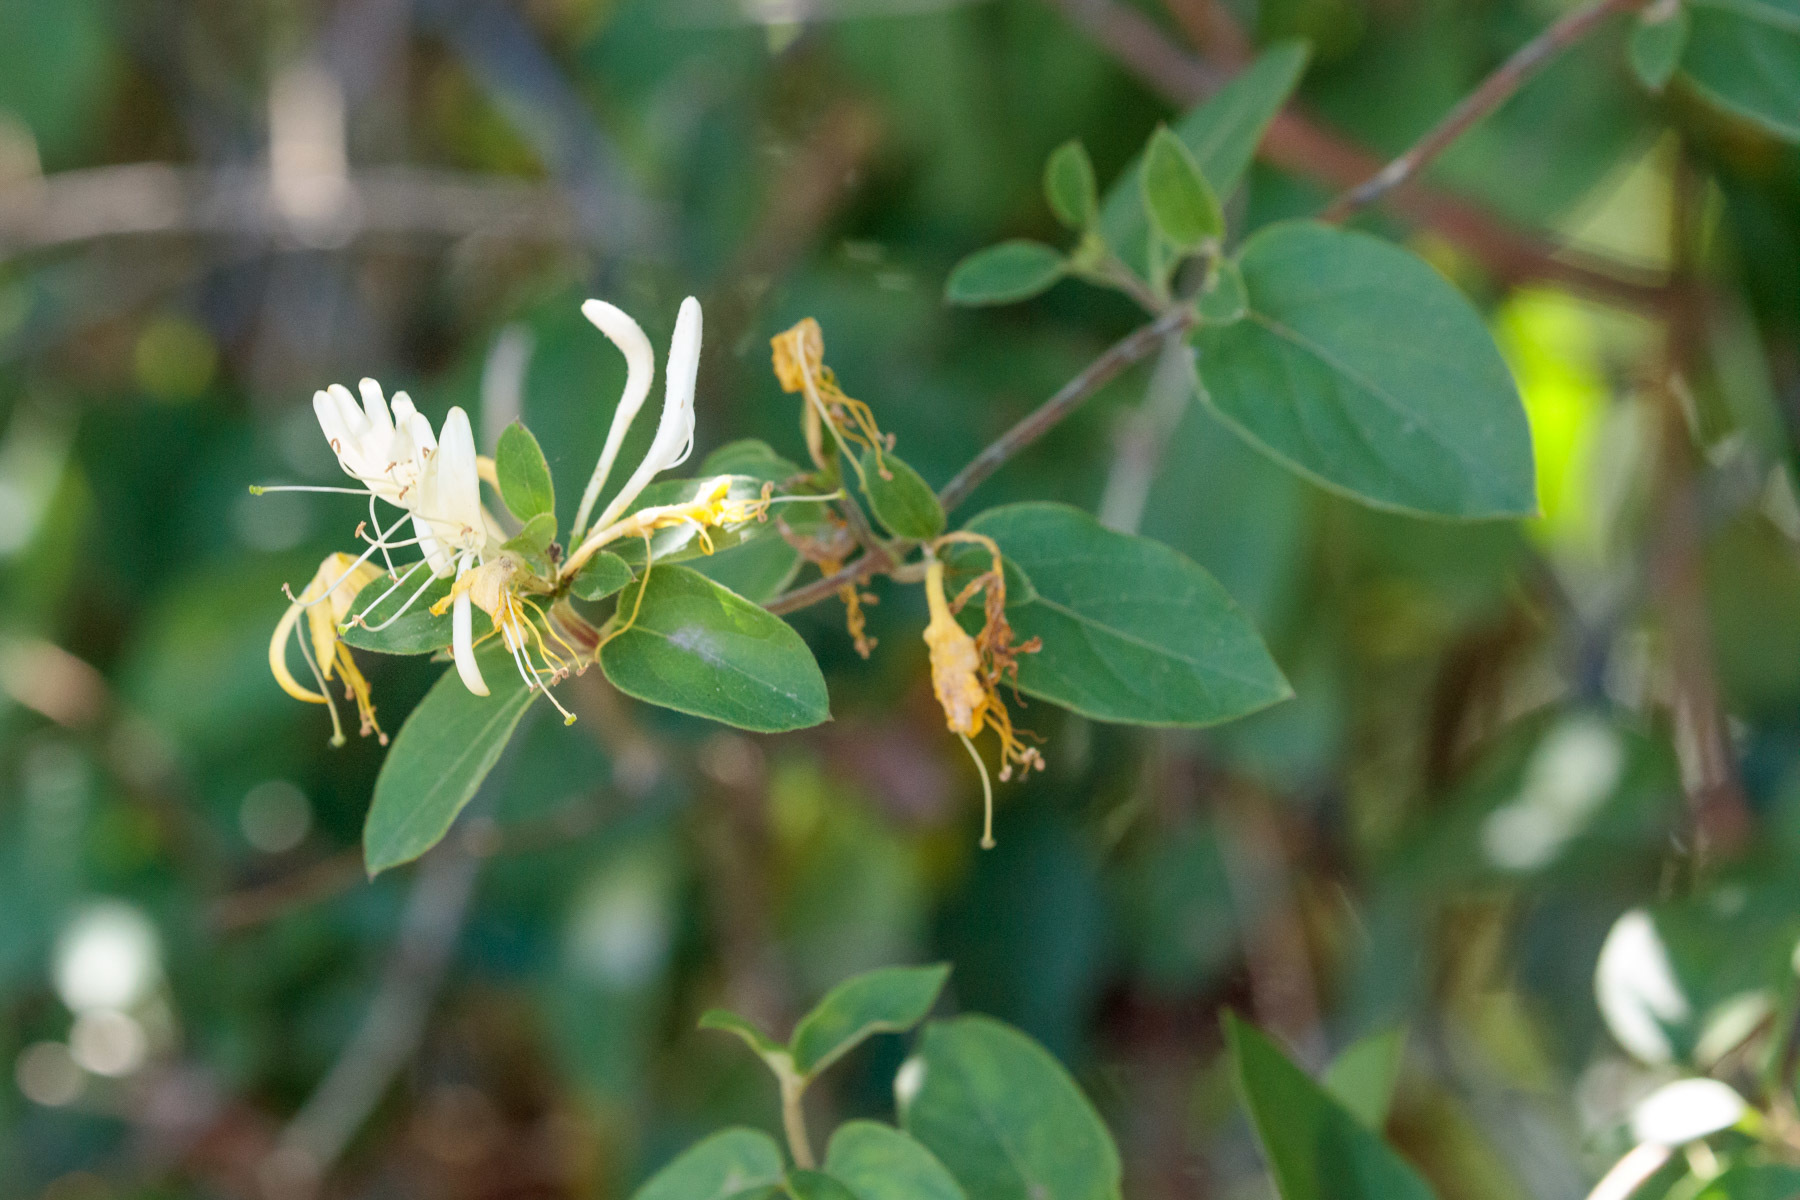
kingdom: Plantae
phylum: Tracheophyta
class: Magnoliopsida
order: Dipsacales
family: Caprifoliaceae
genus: Lonicera
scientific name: Lonicera japonica
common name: Japanese honeysuckle
